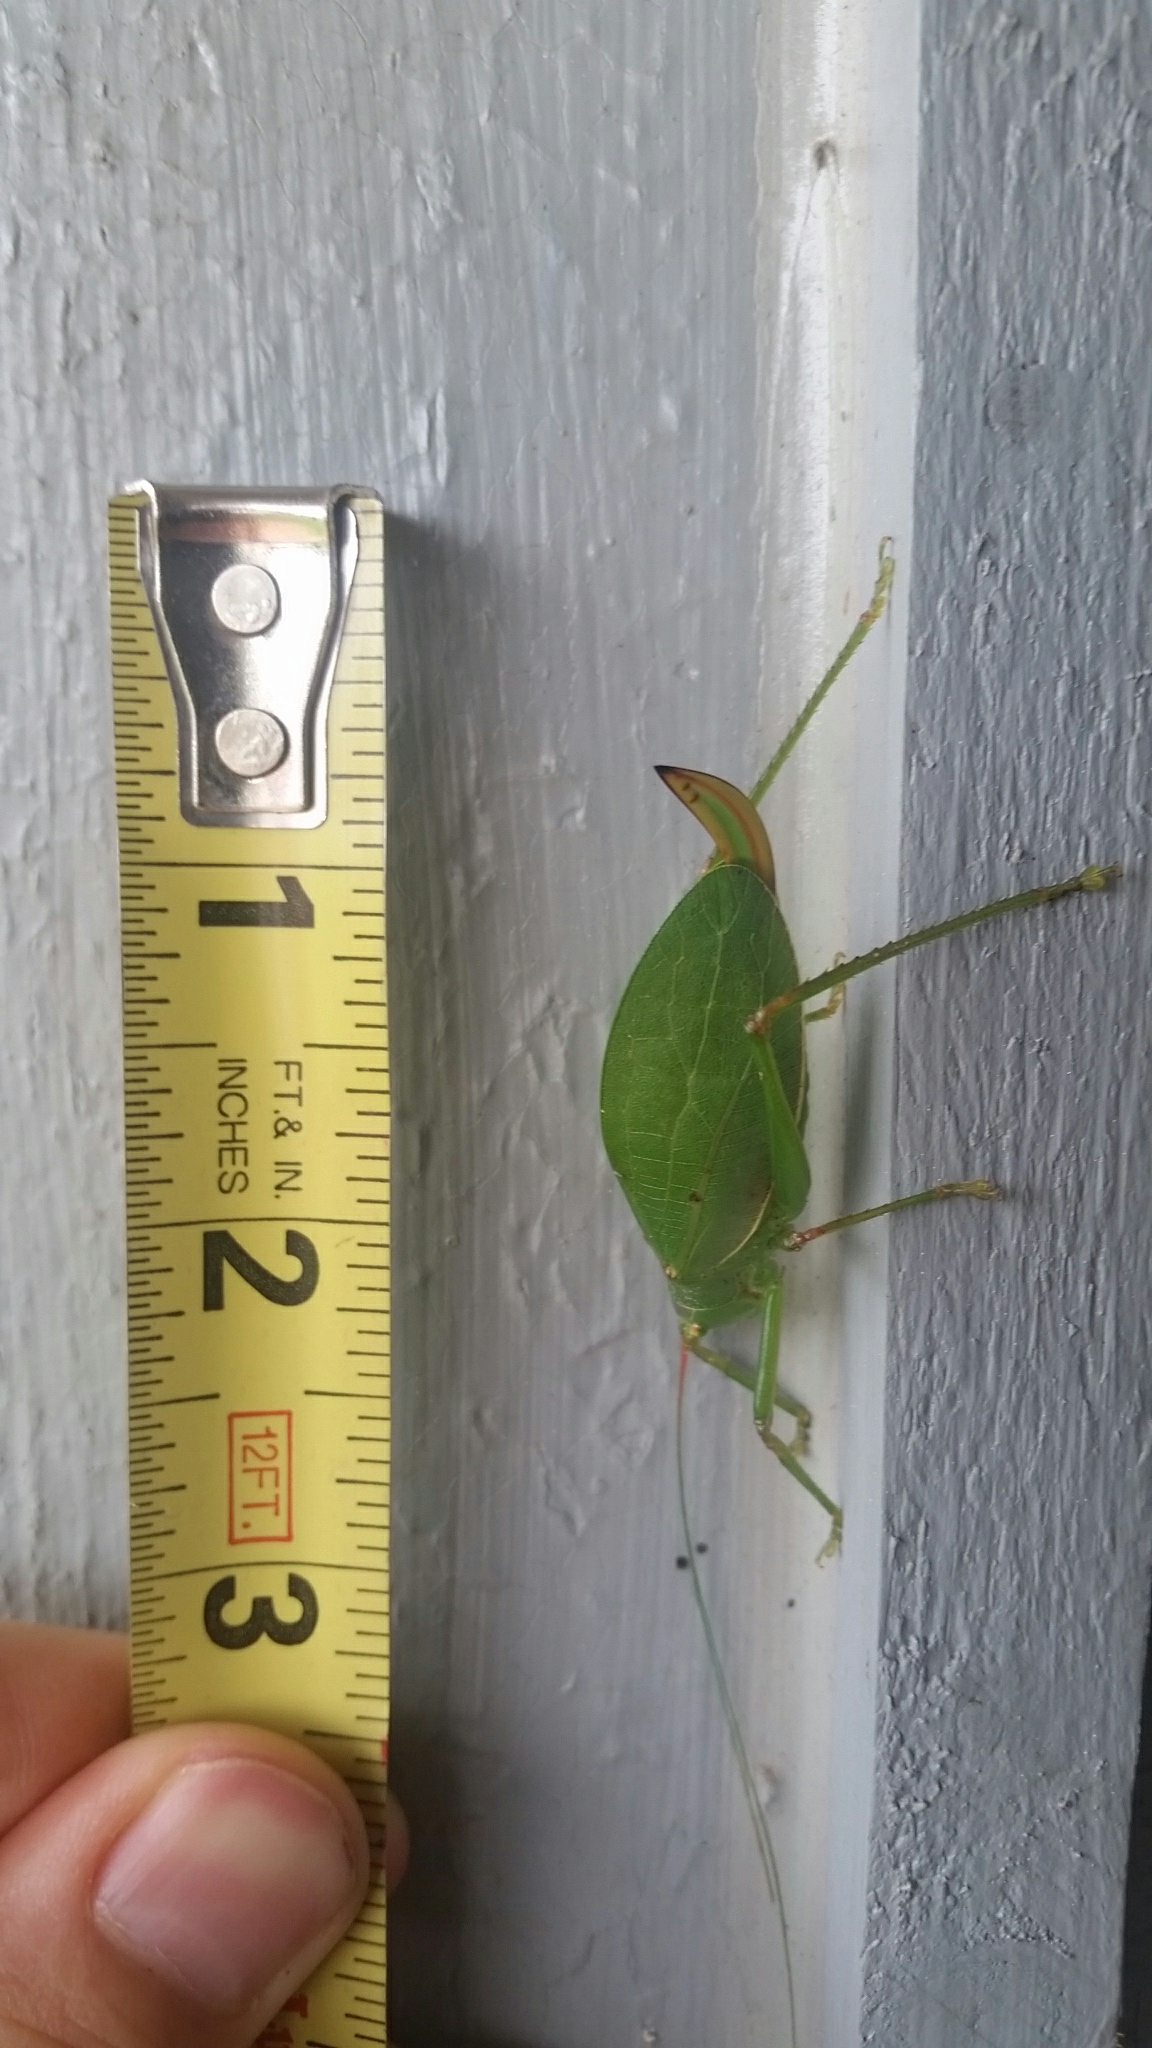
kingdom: Animalia
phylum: Arthropoda
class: Insecta
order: Orthoptera
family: Tettigoniidae
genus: Pterophylla
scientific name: Pterophylla camellifolia
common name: Common true katydid
